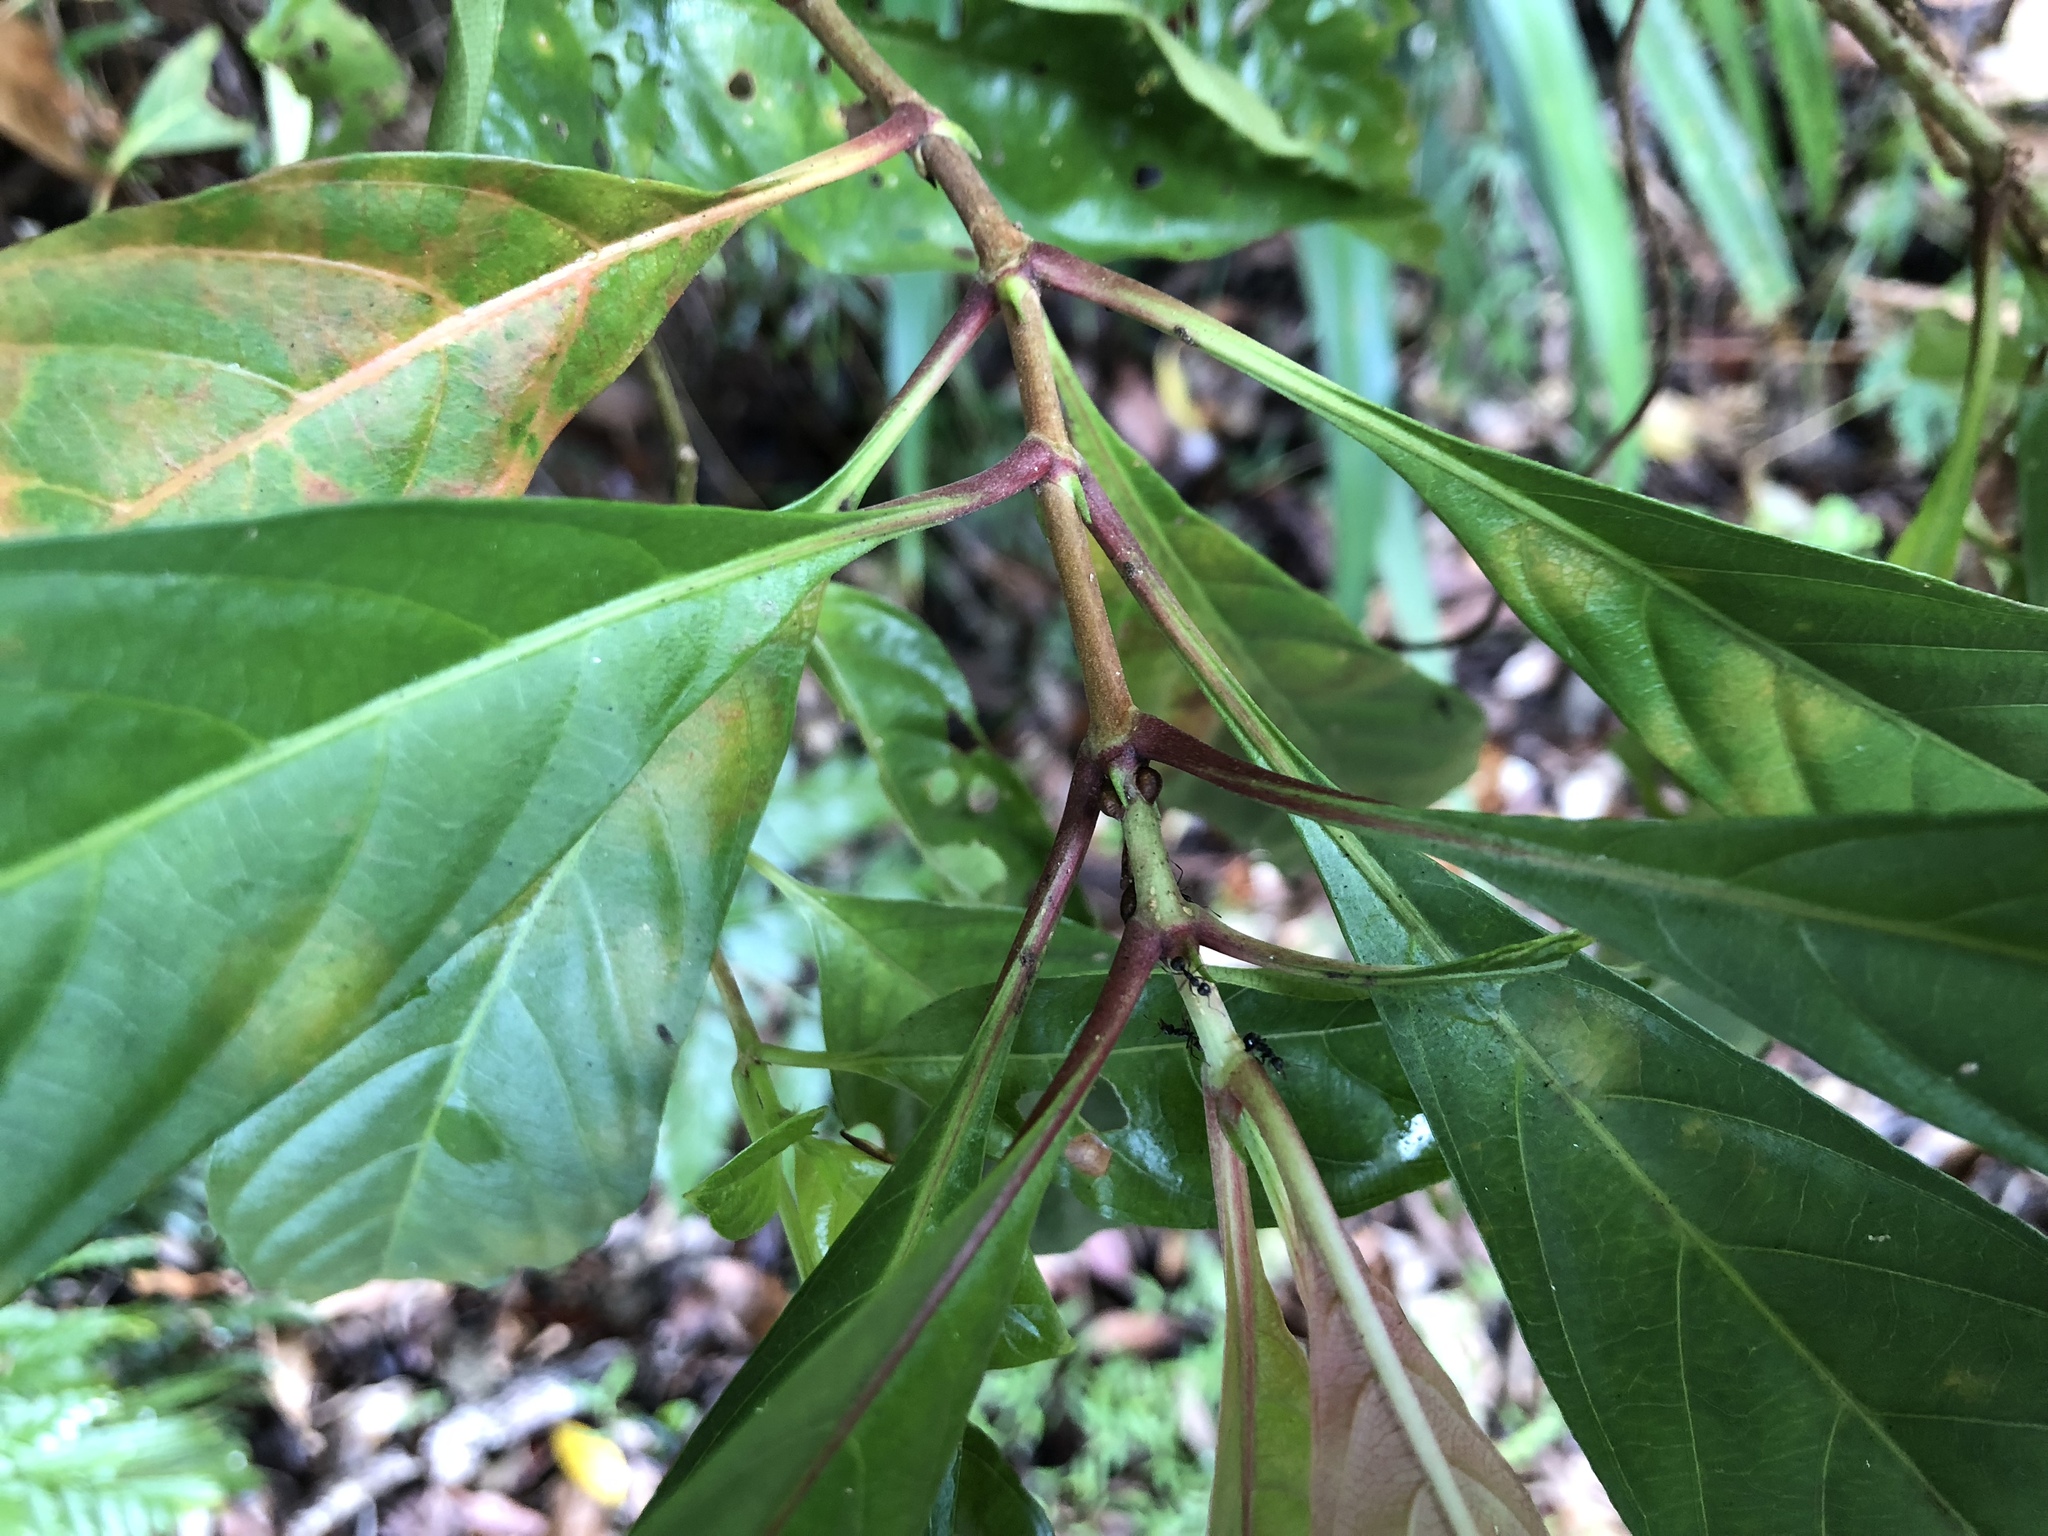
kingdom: Plantae
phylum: Tracheophyta
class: Magnoliopsida
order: Gentianales
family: Rubiaceae
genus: Wendlandia
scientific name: Wendlandia formosana
